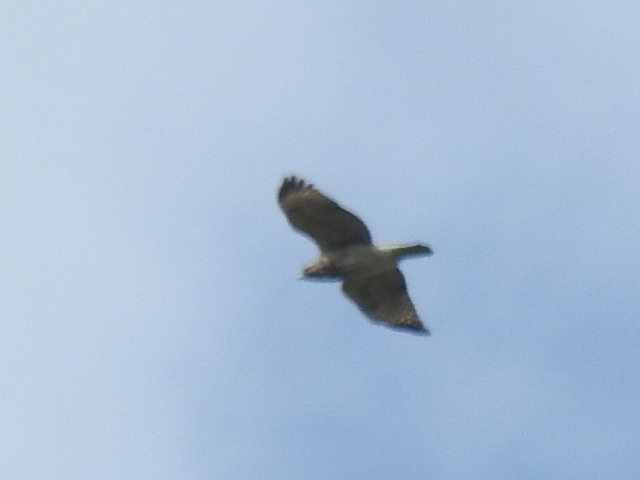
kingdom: Animalia
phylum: Chordata
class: Aves
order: Accipitriformes
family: Accipitridae
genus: Buteo
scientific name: Buteo lineatus
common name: Red-shouldered hawk
